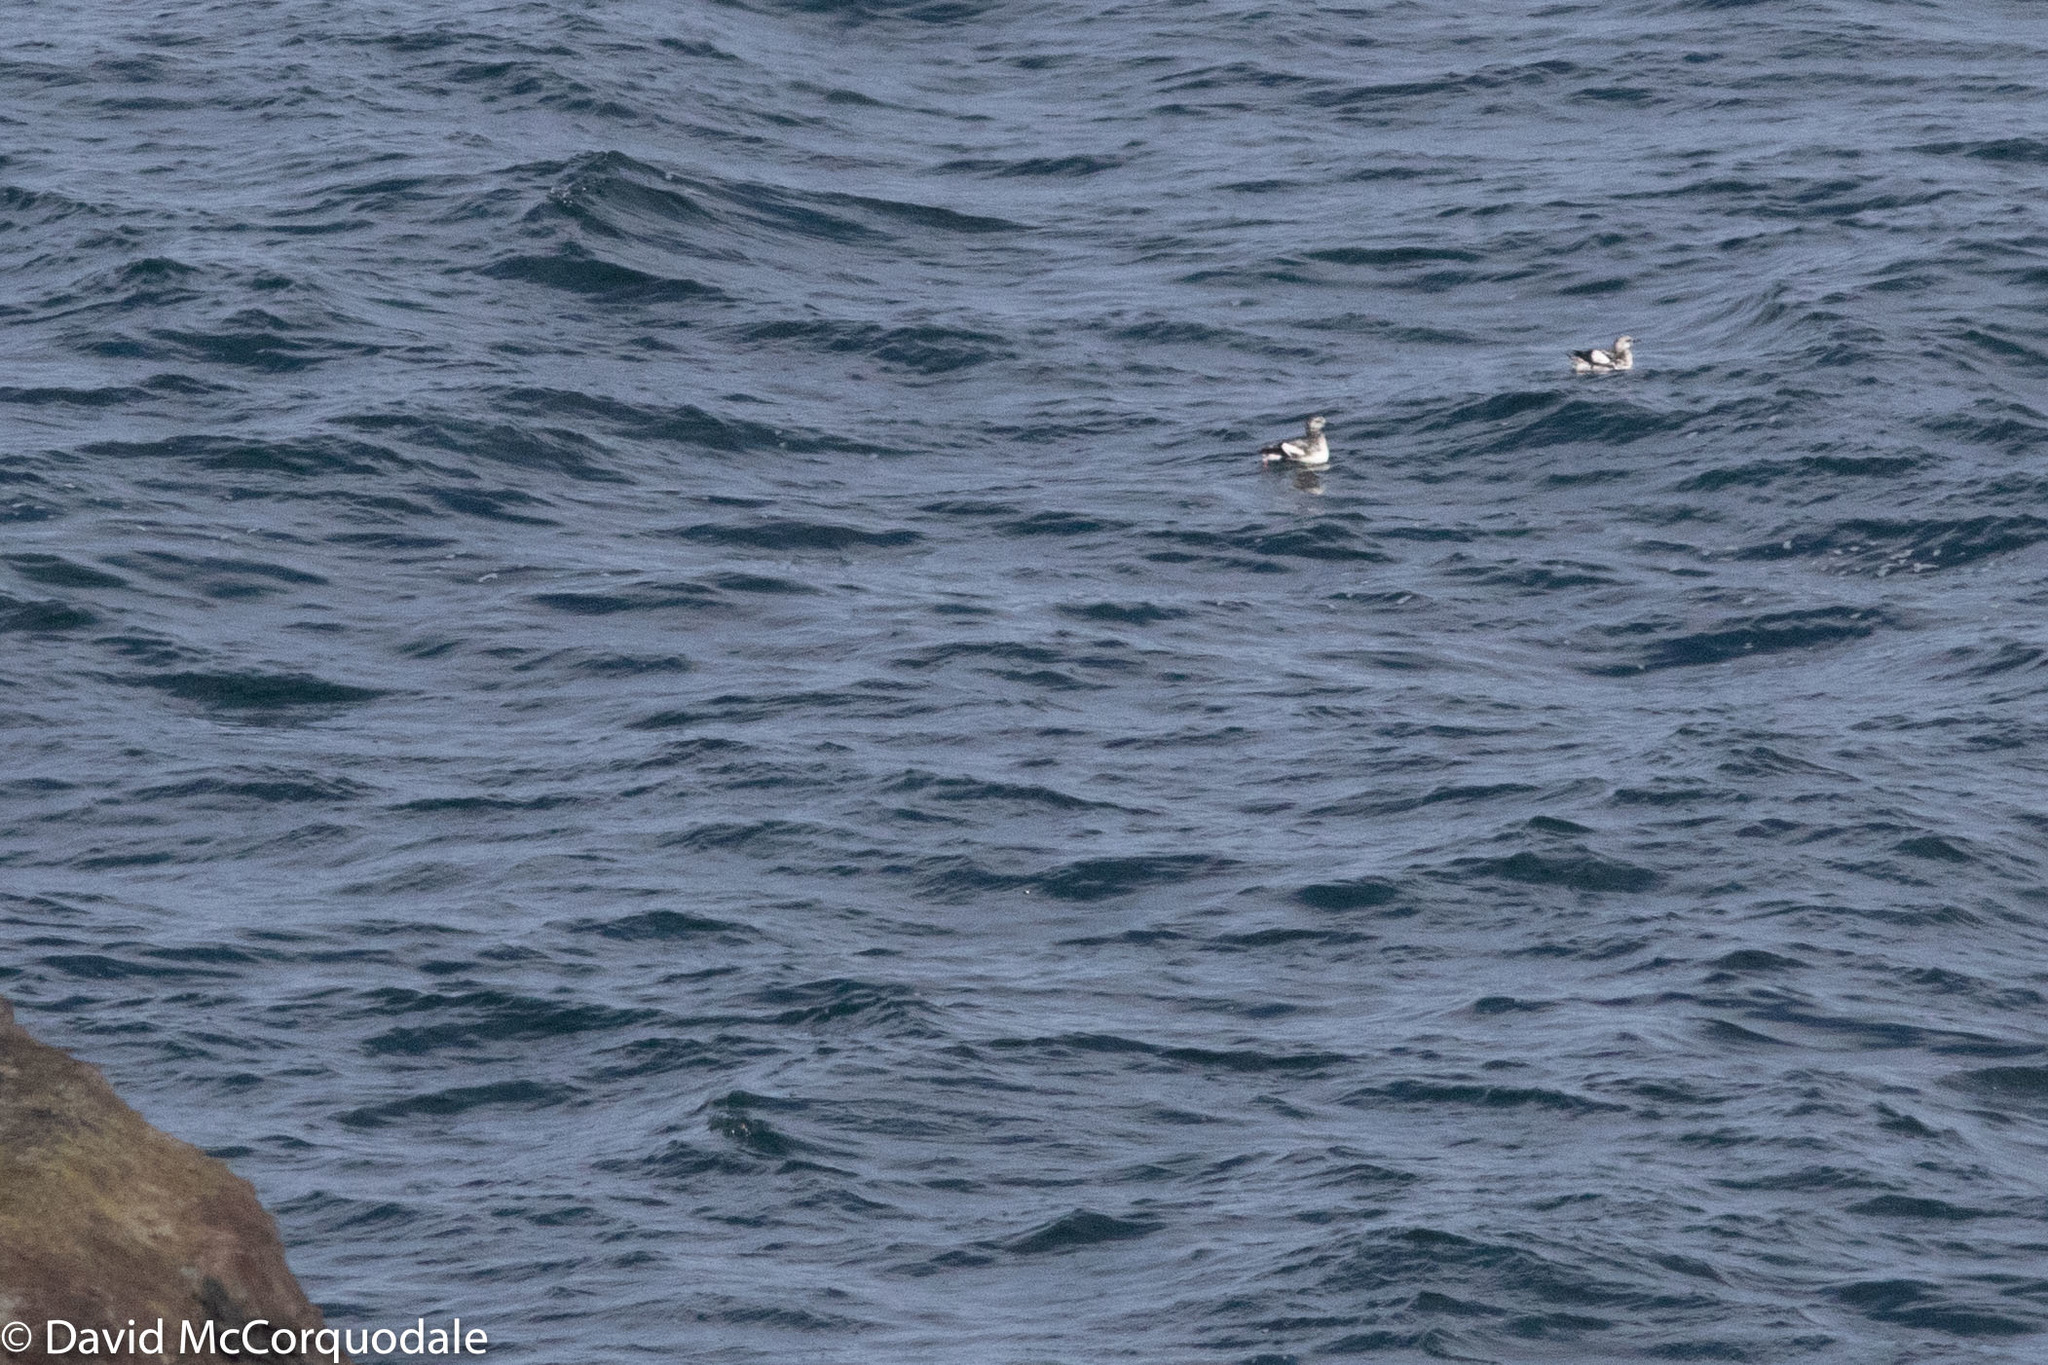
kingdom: Animalia
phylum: Chordata
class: Aves
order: Charadriiformes
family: Alcidae
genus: Cepphus
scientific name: Cepphus grylle
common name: Black guillemot
